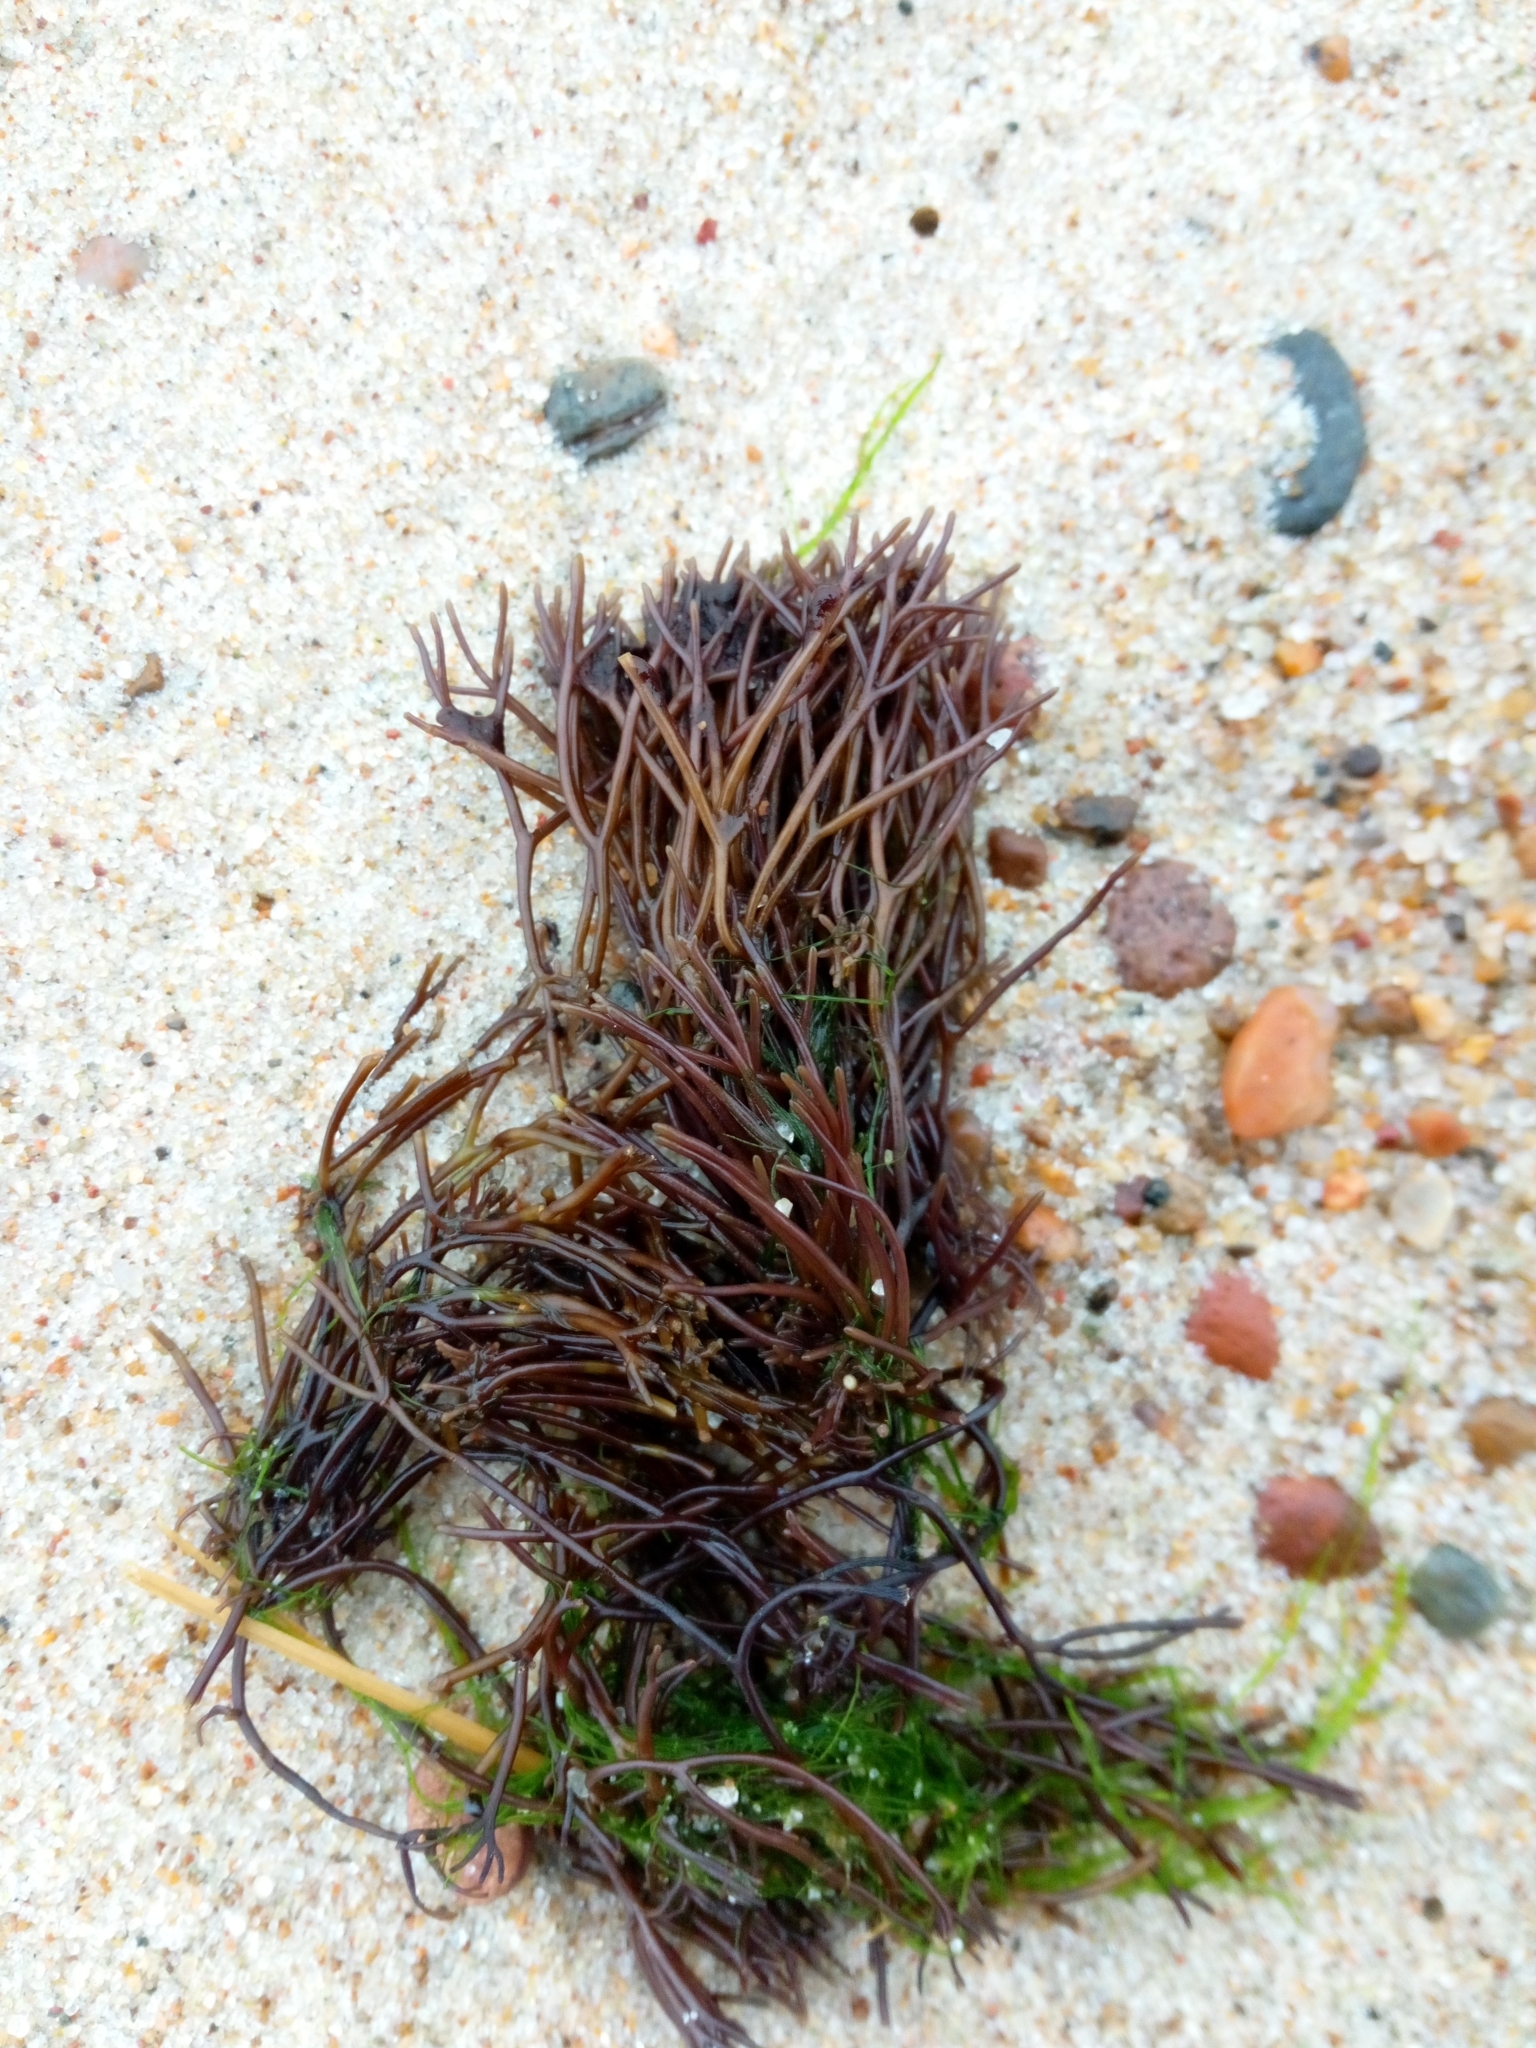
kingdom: Plantae
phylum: Rhodophyta
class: Florideophyceae
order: Gigartinales
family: Furcellariaceae
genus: Furcellaria
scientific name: Furcellaria lumbricalis
